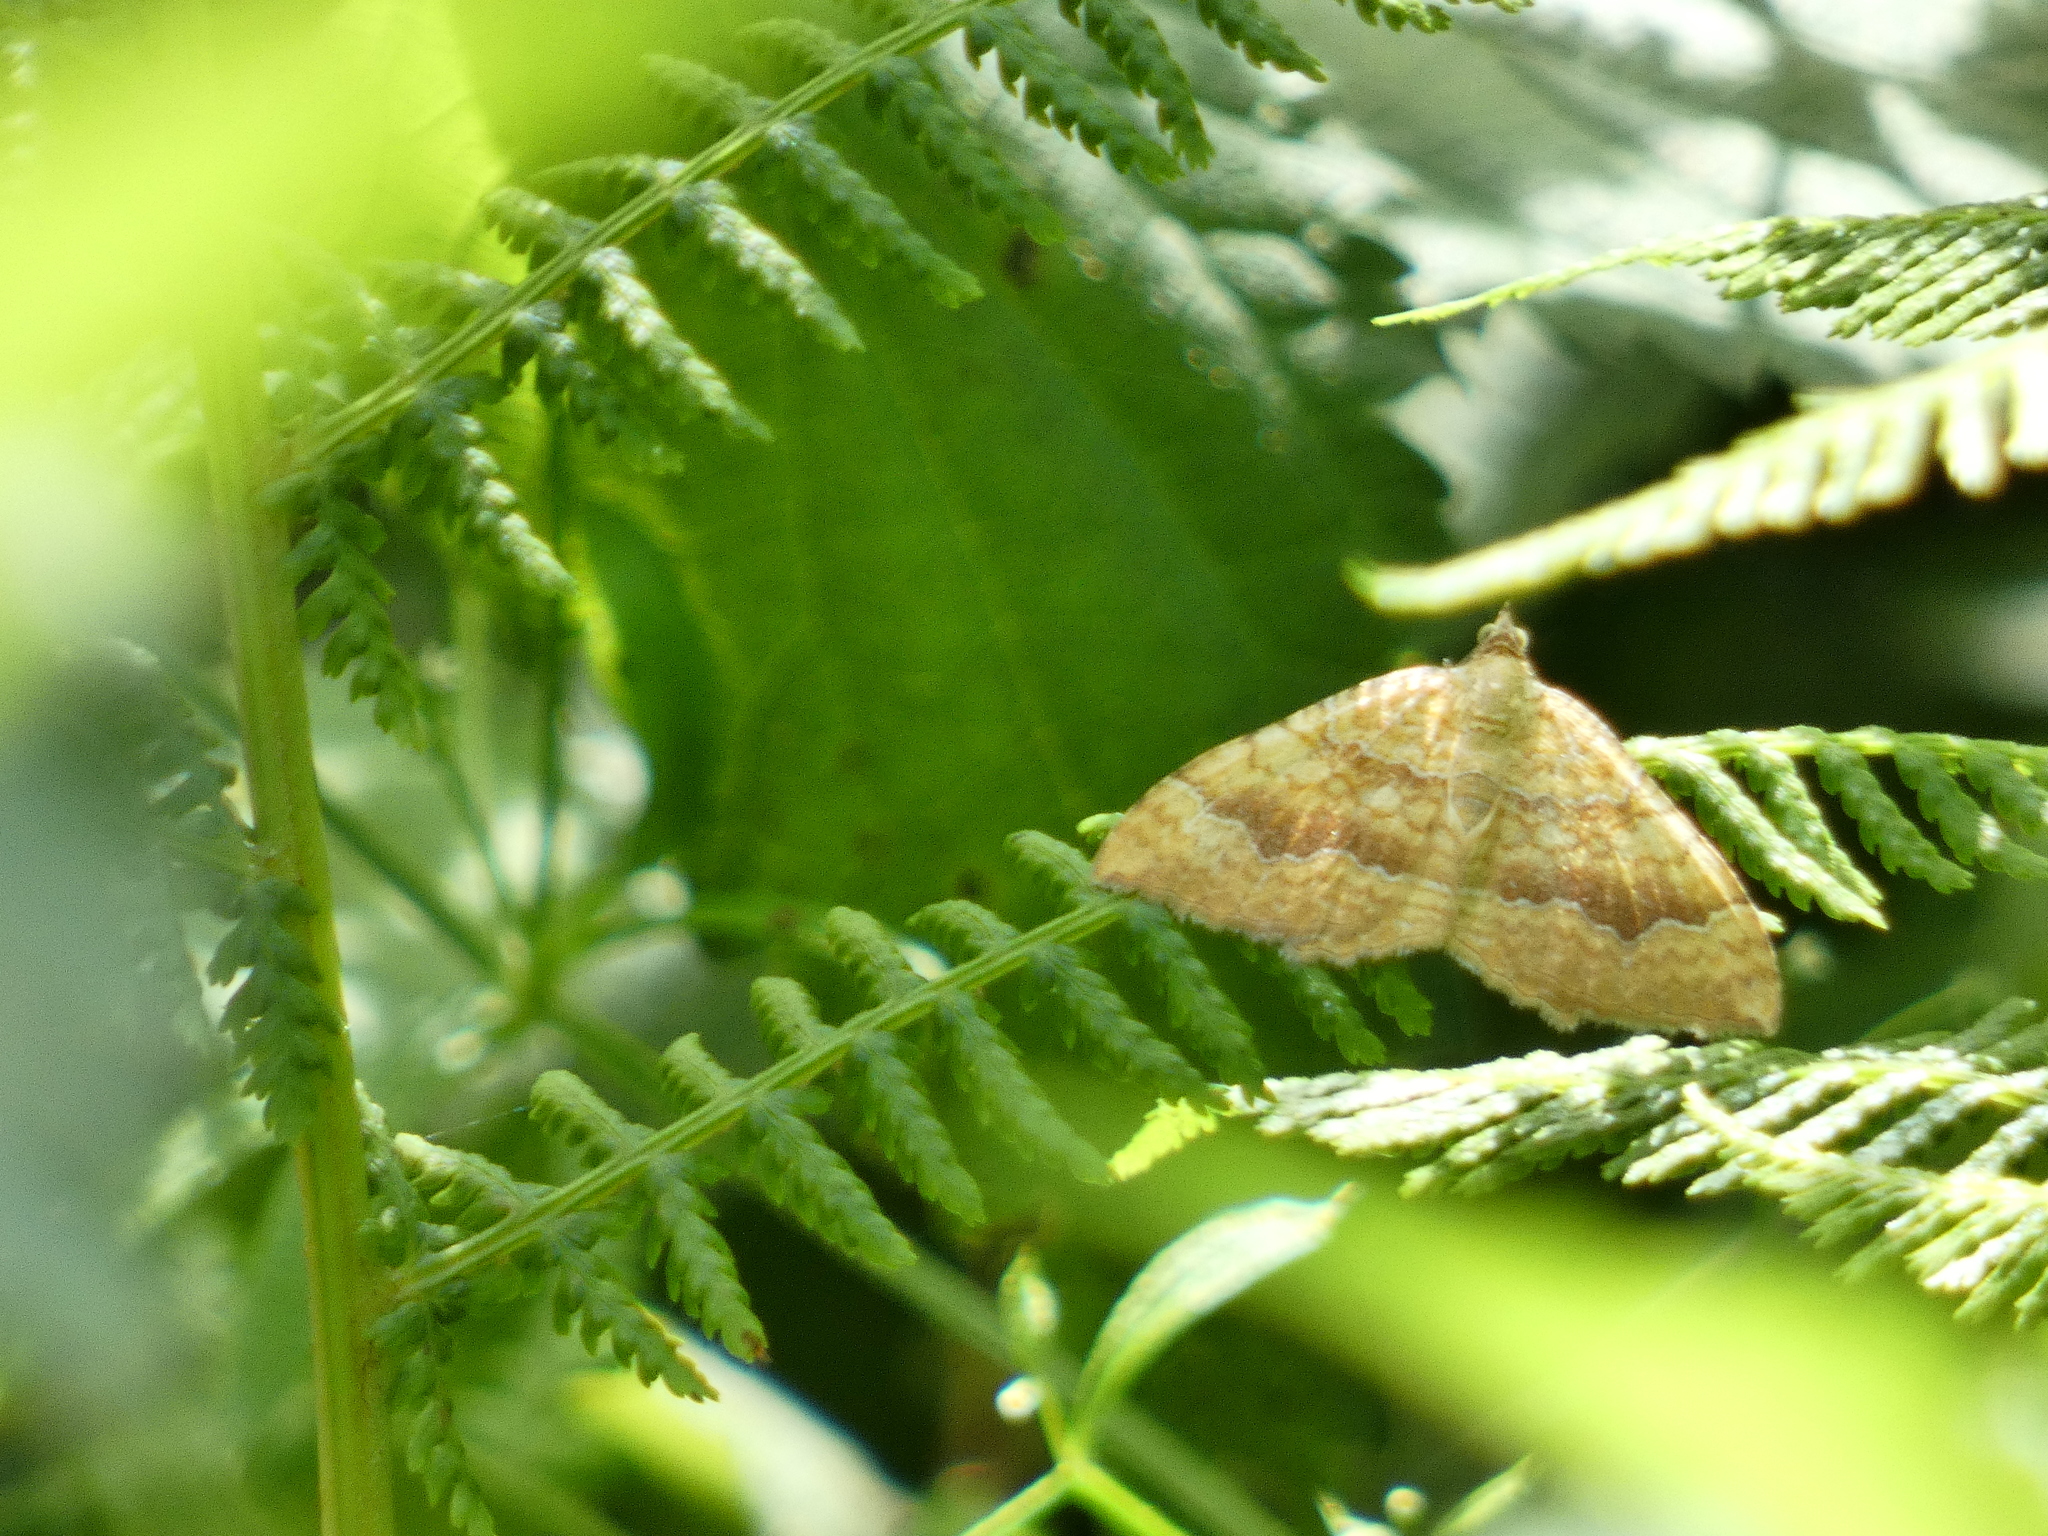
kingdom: Animalia
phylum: Arthropoda
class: Insecta
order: Lepidoptera
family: Geometridae
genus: Camptogramma
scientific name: Camptogramma bilineata
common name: Yellow shell
